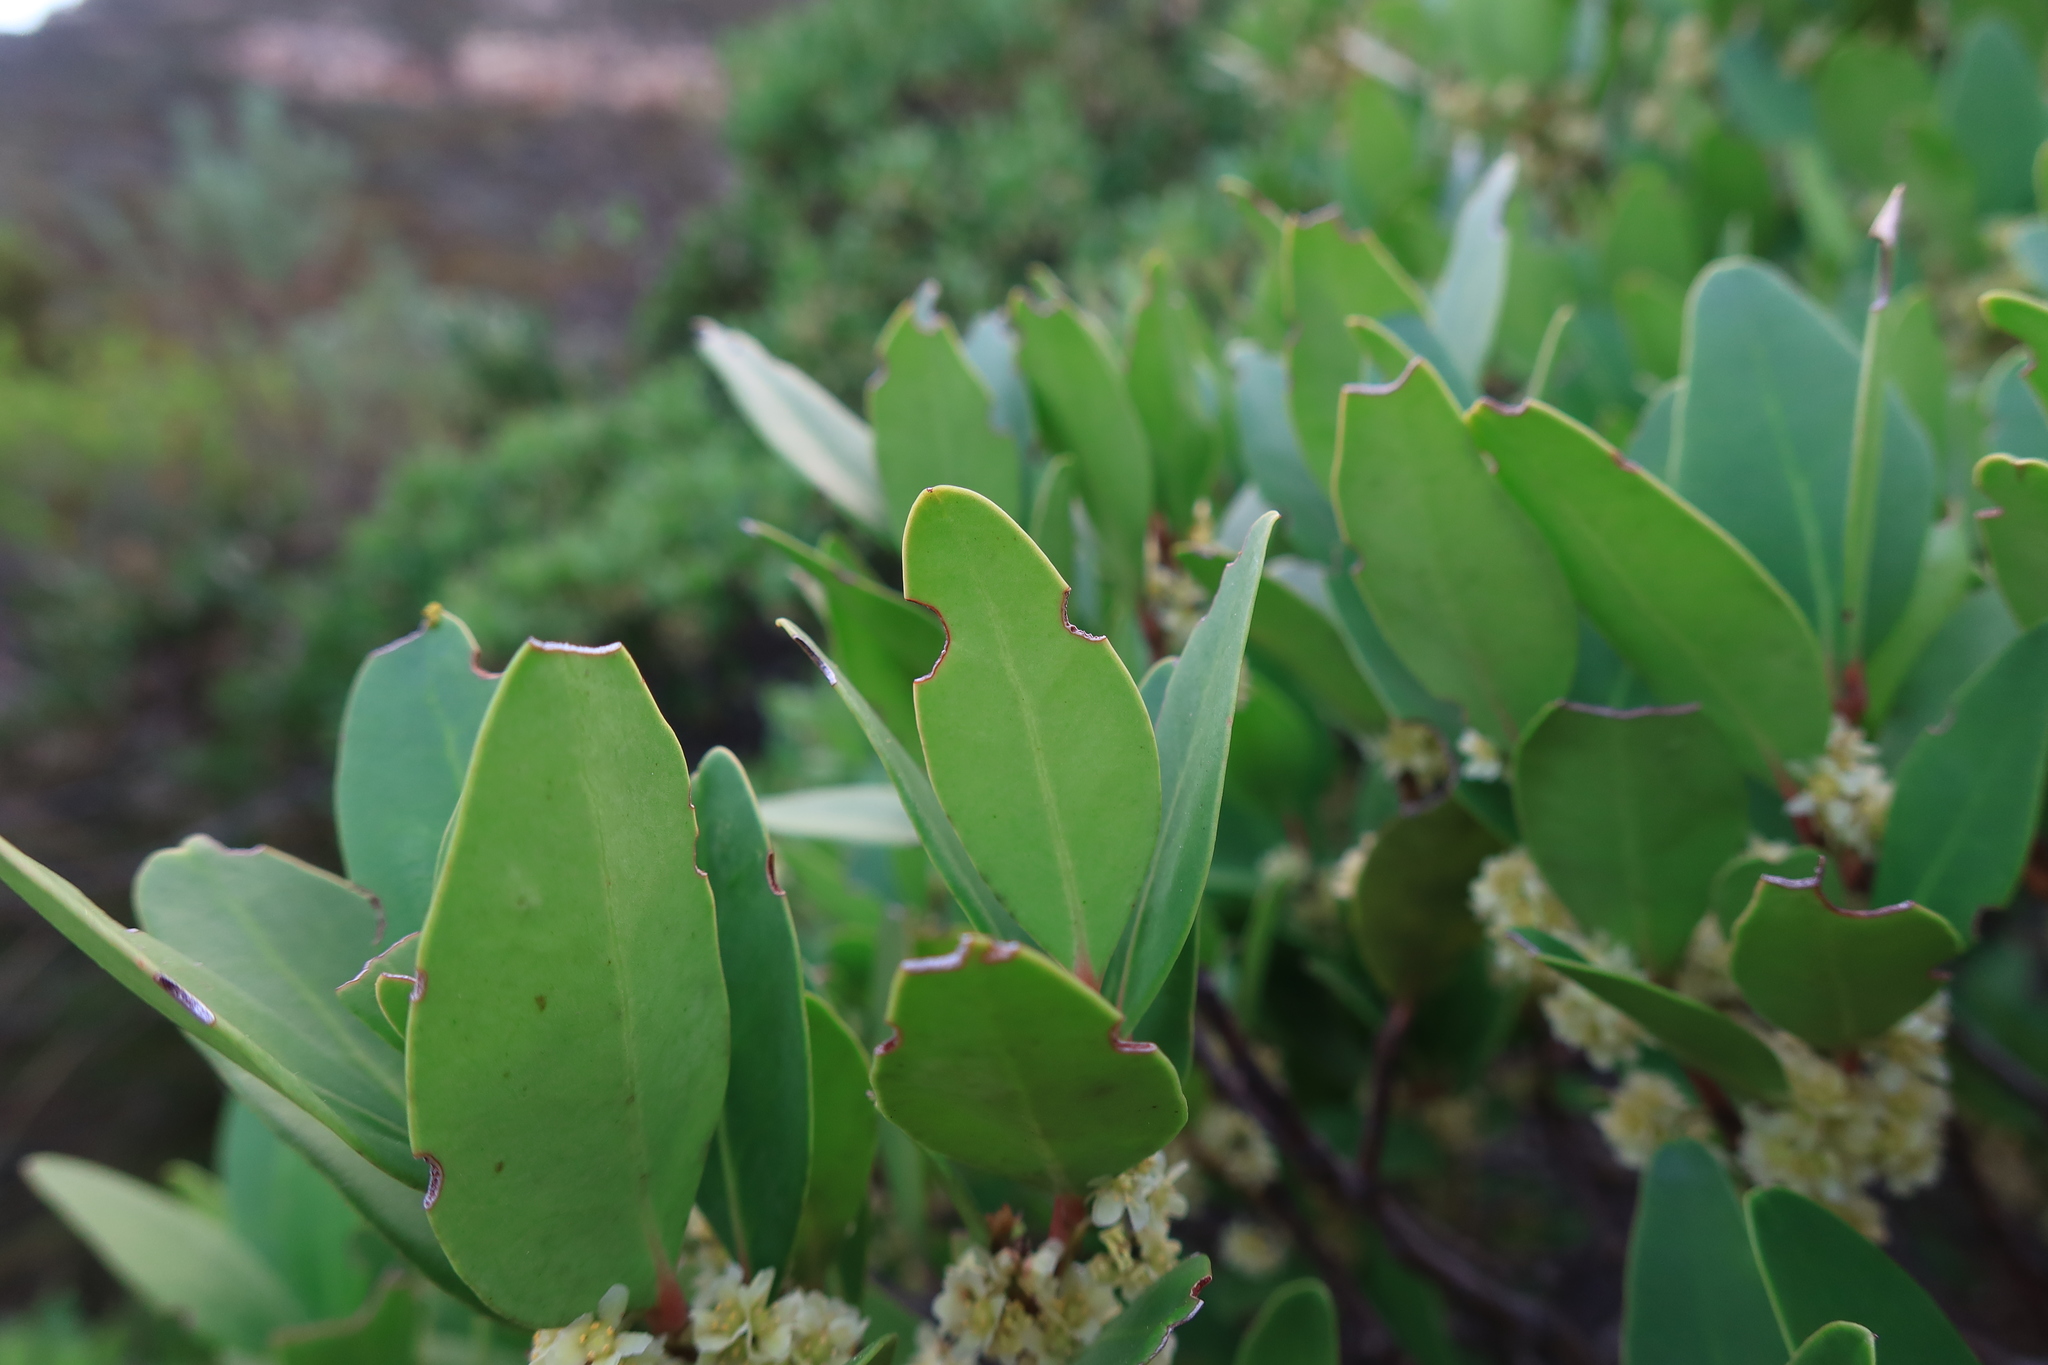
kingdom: Plantae
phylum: Tracheophyta
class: Magnoliopsida
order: Celastrales
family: Celastraceae
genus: Gymnosporia
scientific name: Gymnosporia laurina
